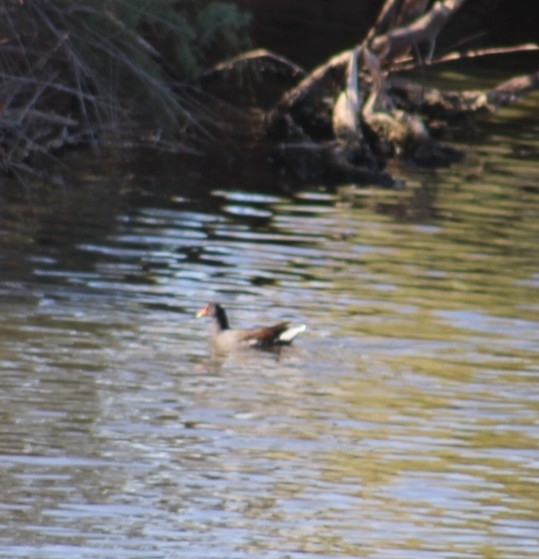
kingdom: Animalia
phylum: Chordata
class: Aves
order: Gruiformes
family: Rallidae
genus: Gallinula
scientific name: Gallinula chloropus
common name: Common moorhen
